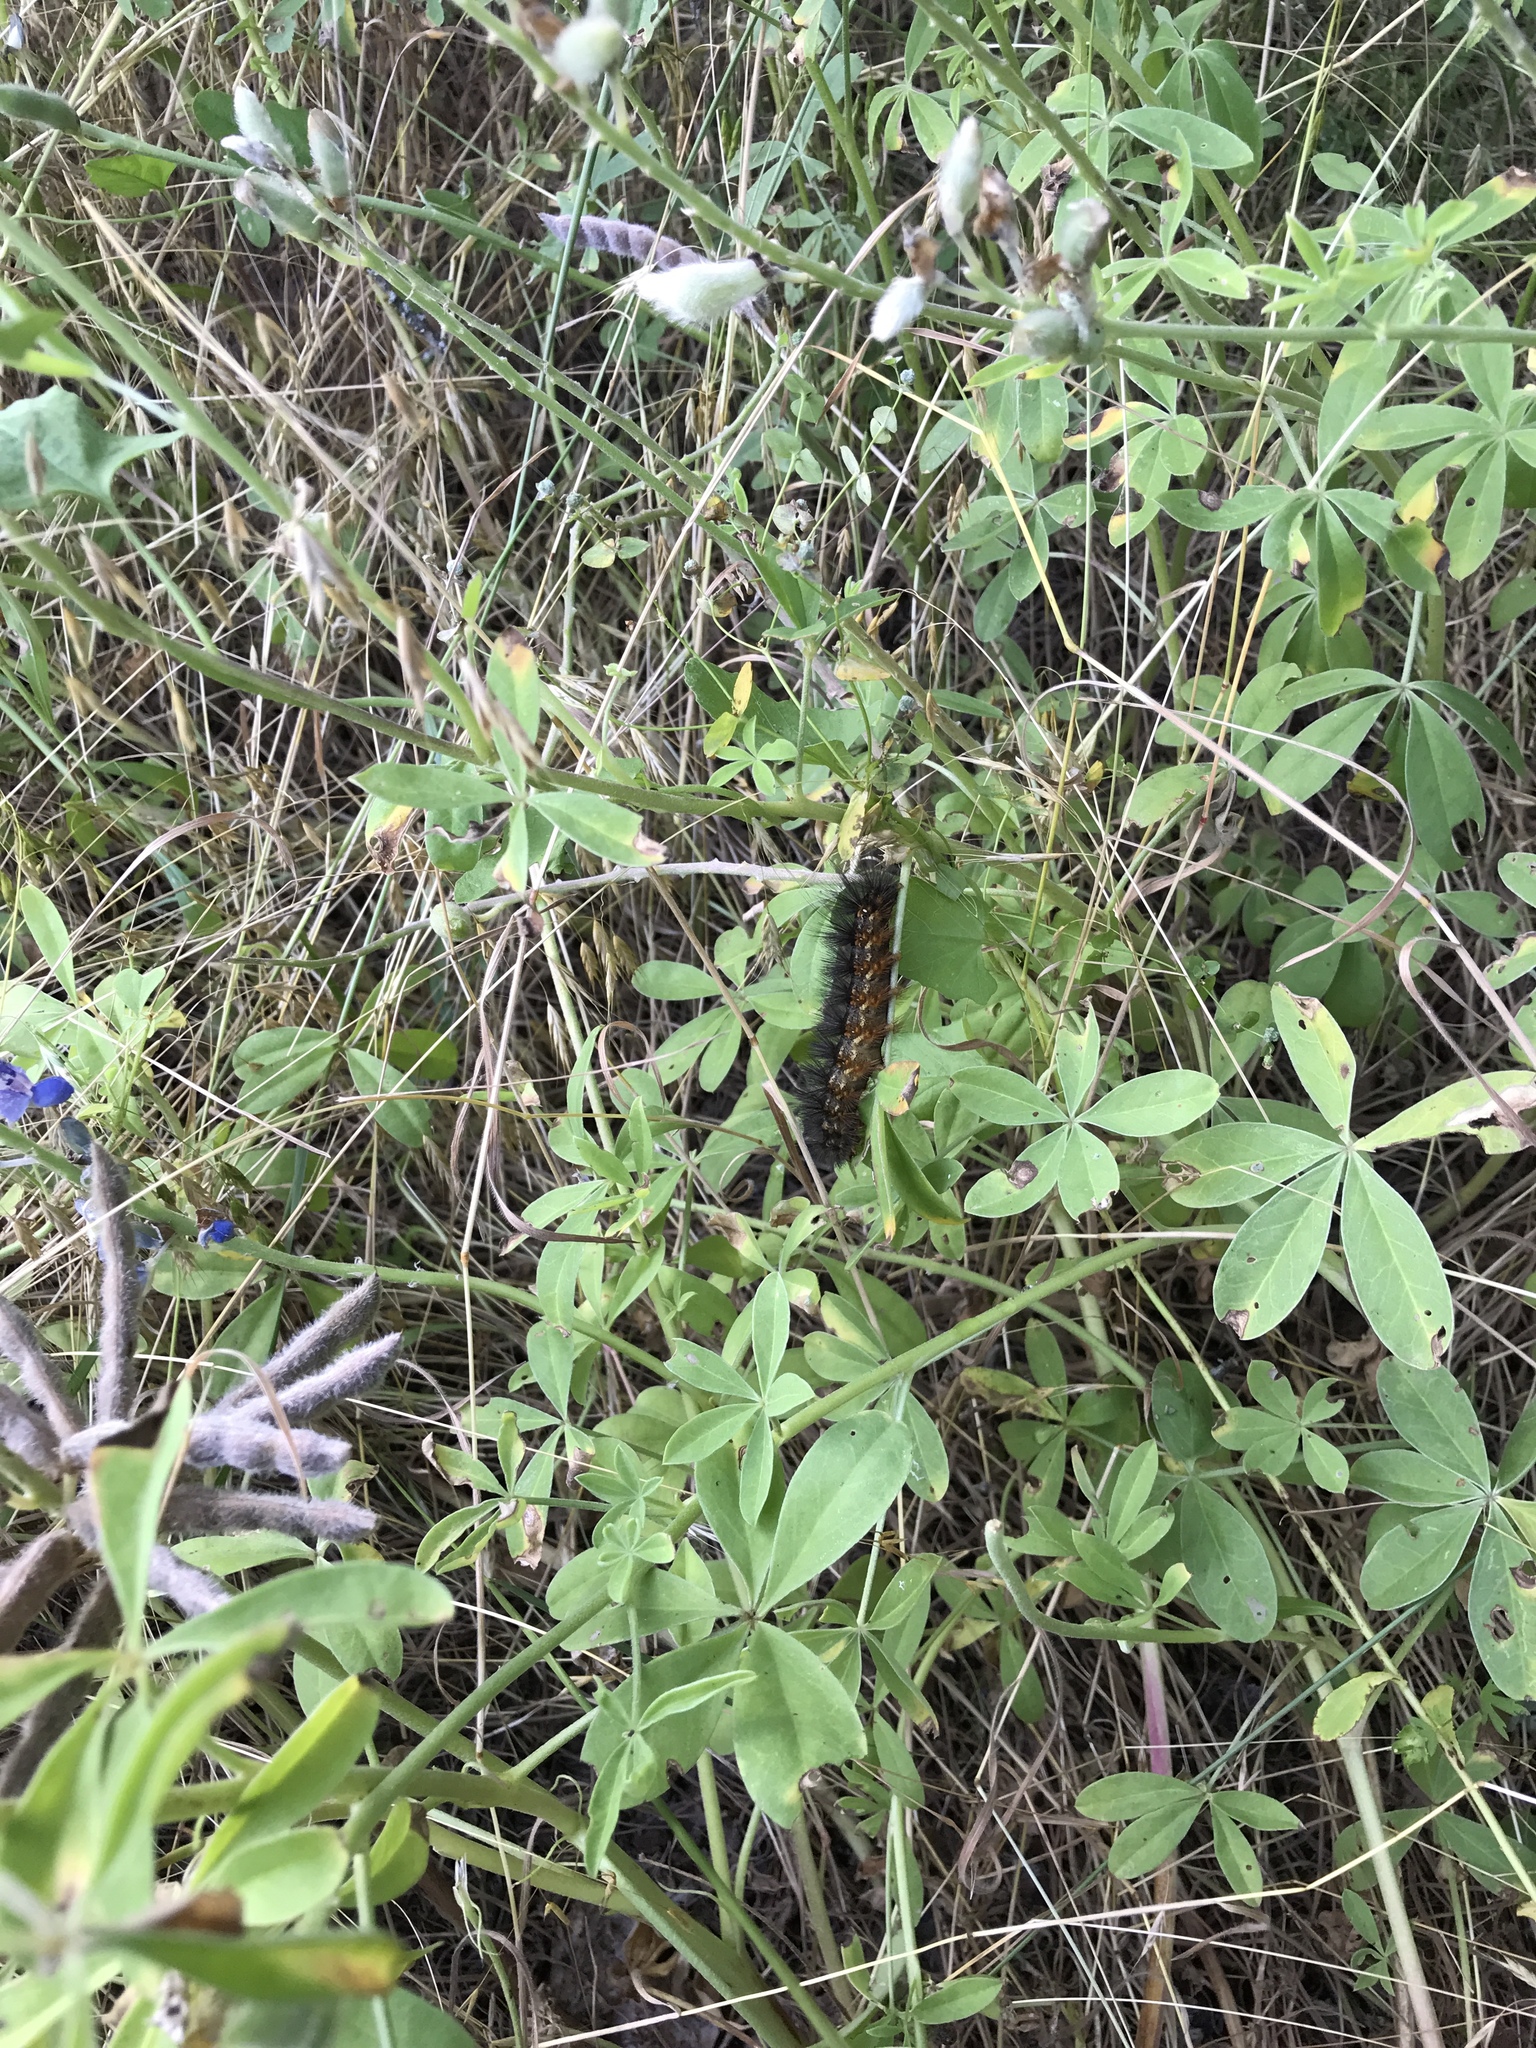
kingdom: Animalia
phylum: Arthropoda
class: Insecta
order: Lepidoptera
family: Erebidae
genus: Estigmene
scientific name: Estigmene acrea
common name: Salt marsh moth
